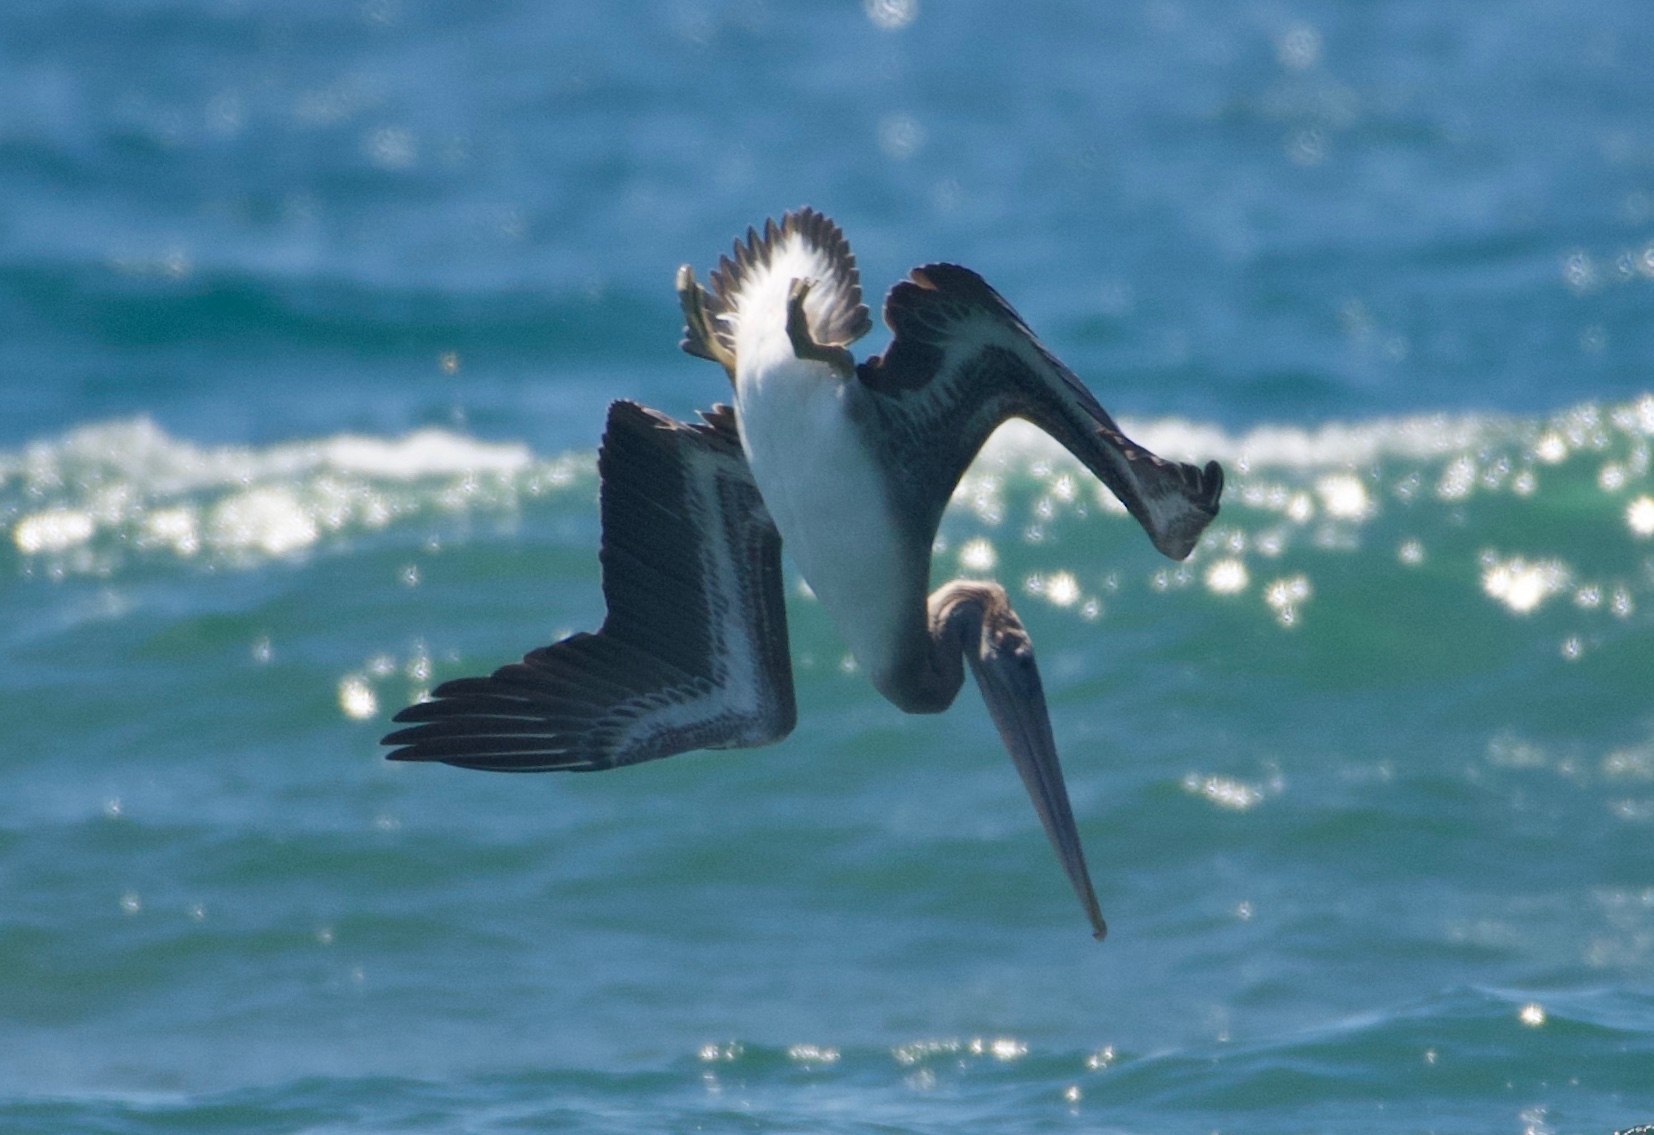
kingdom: Animalia
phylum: Chordata
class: Aves
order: Pelecaniformes
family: Pelecanidae
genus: Pelecanus
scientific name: Pelecanus occidentalis
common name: Brown pelican
